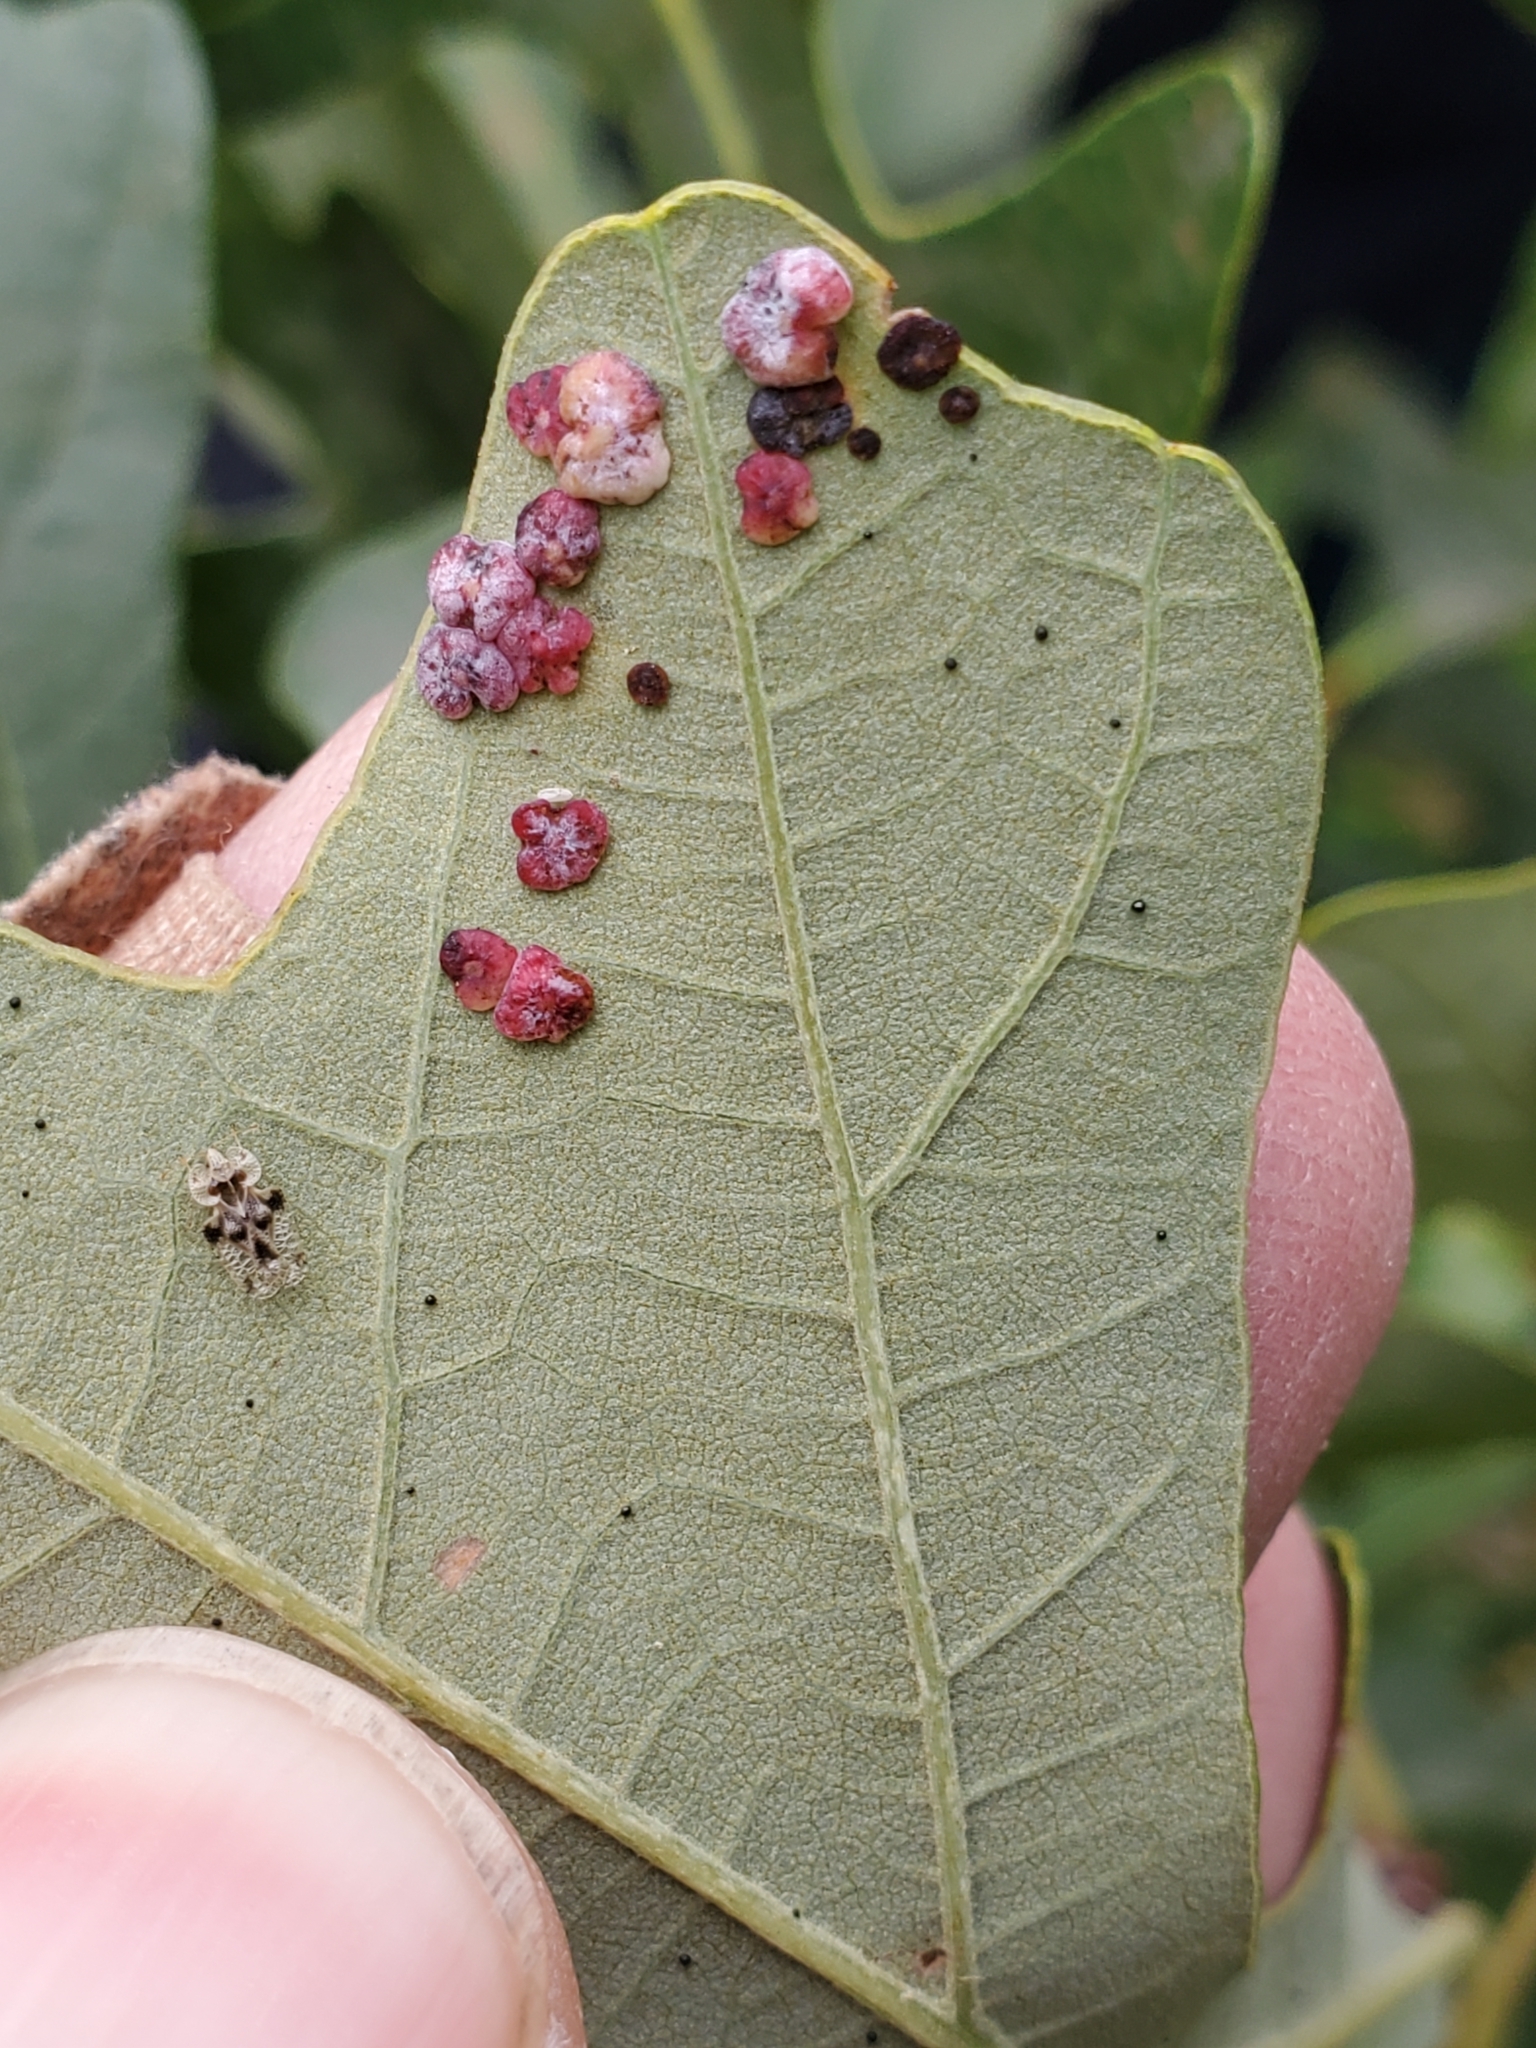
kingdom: Animalia
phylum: Arthropoda
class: Insecta
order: Hymenoptera
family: Cynipidae
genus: Phylloteras
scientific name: Phylloteras poculum
